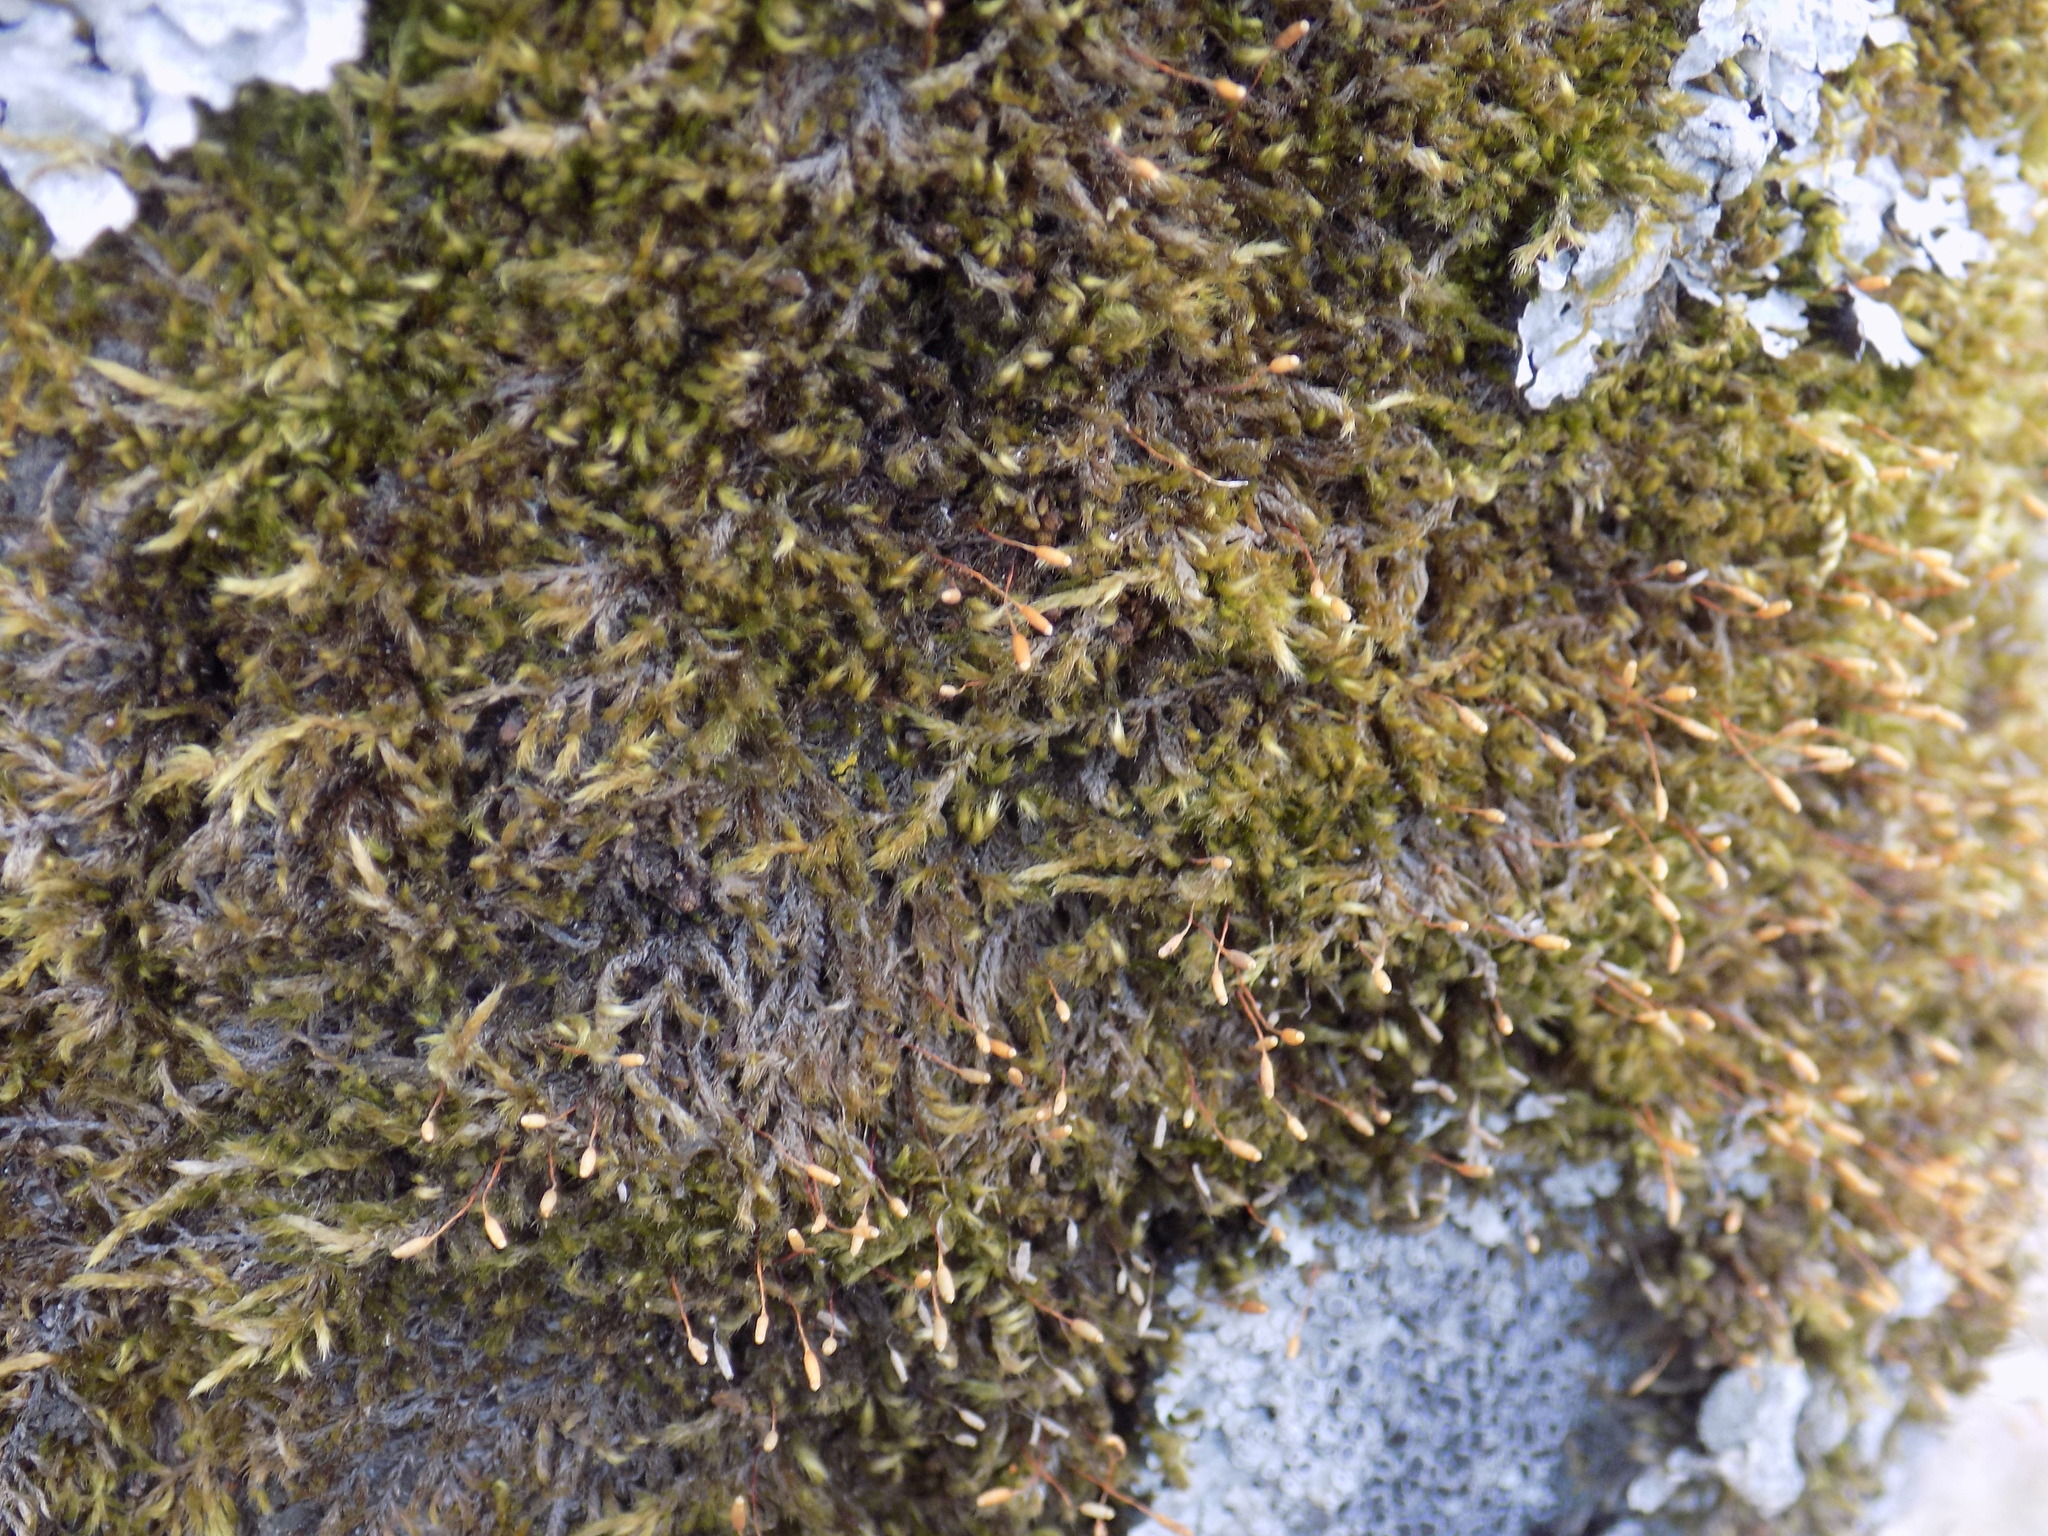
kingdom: Plantae
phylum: Bryophyta
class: Bryopsida
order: Hypnales
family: Pylaisiaceae
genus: Pylaisia
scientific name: Pylaisia polyantha
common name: Many-flowered leskea
